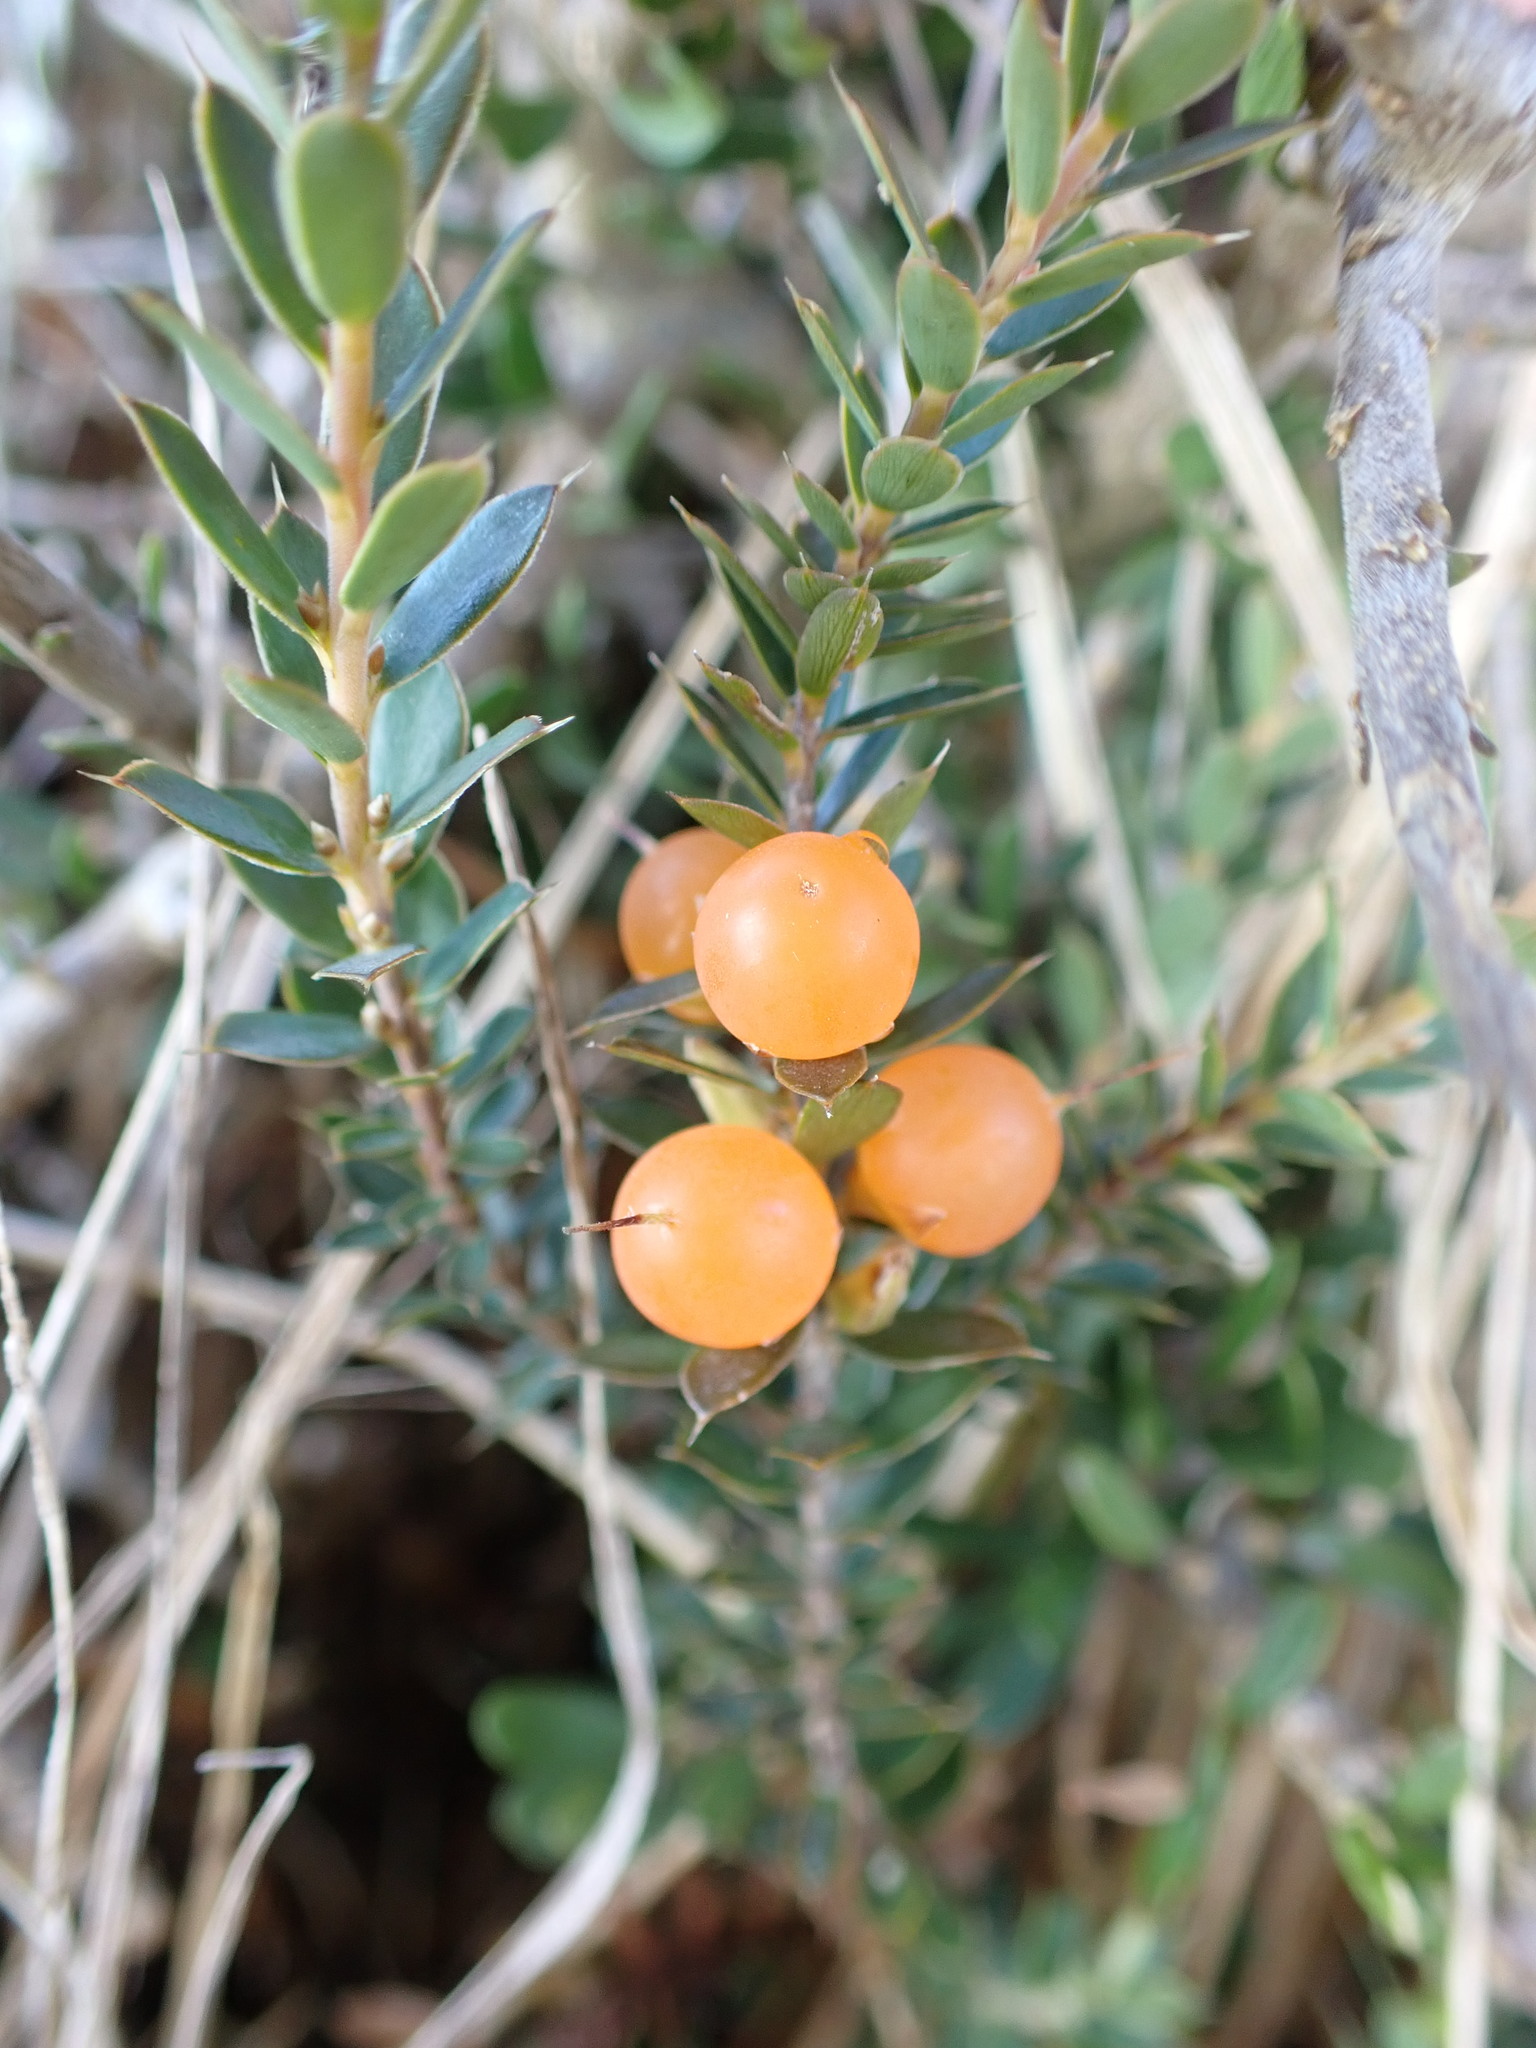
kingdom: Plantae
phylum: Tracheophyta
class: Magnoliopsida
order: Ericales
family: Ericaceae
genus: Styphelia
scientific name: Styphelia nesophila
